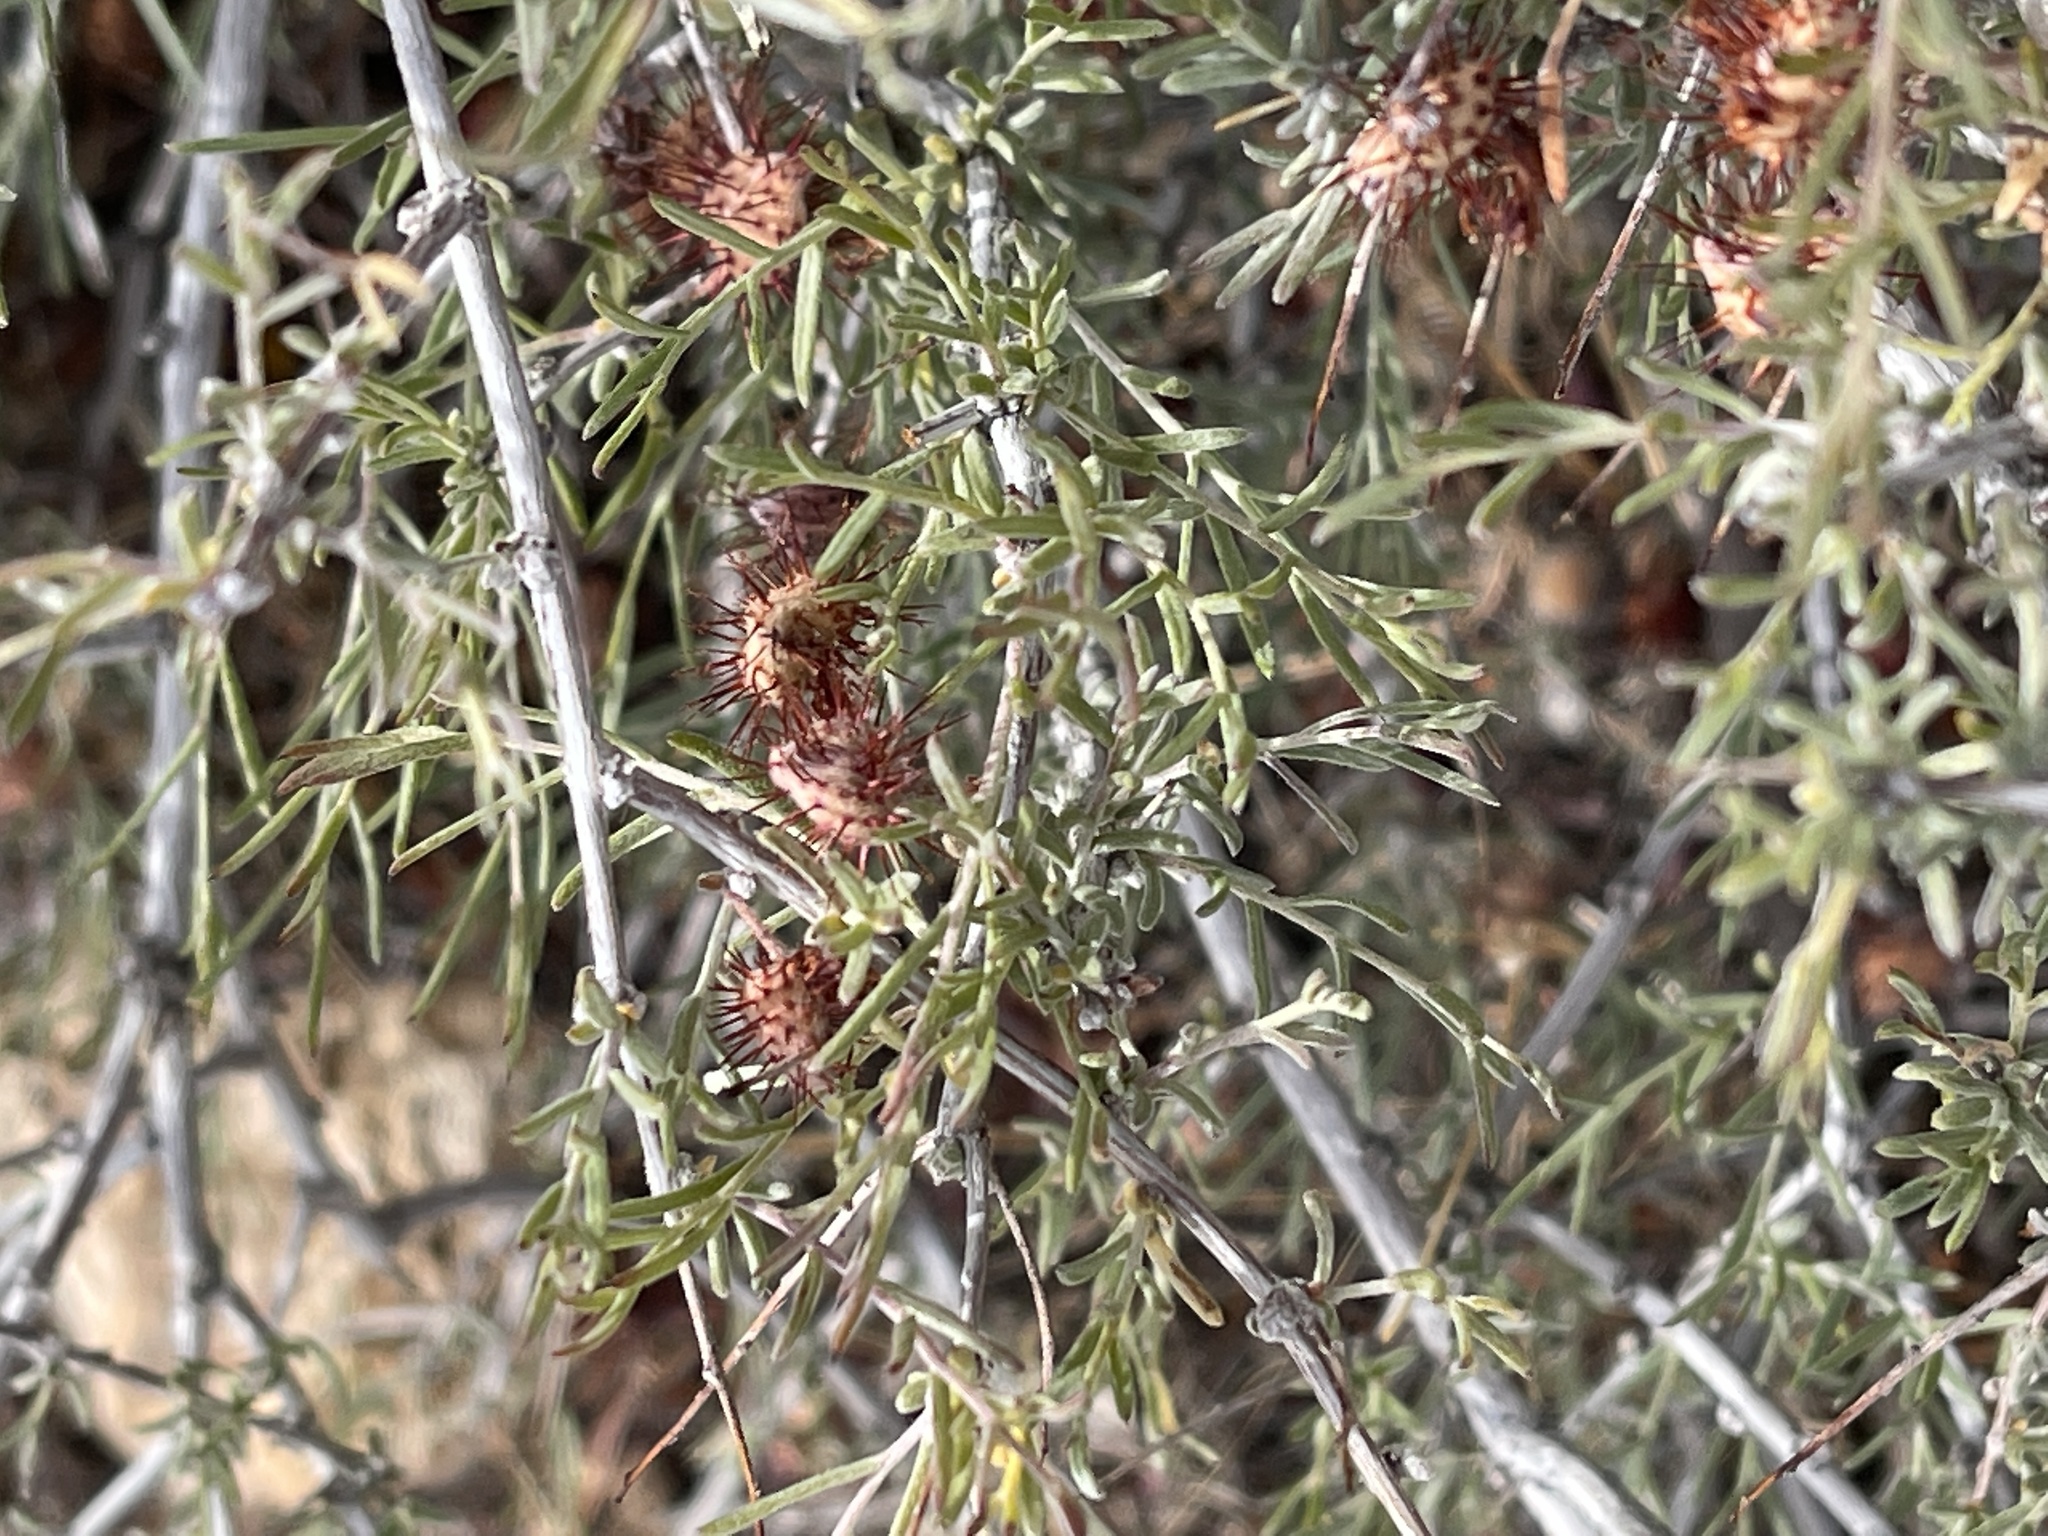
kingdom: Plantae
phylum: Tracheophyta
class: Magnoliopsida
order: Zygophyllales
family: Krameriaceae
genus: Krameria
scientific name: Krameria erecta
